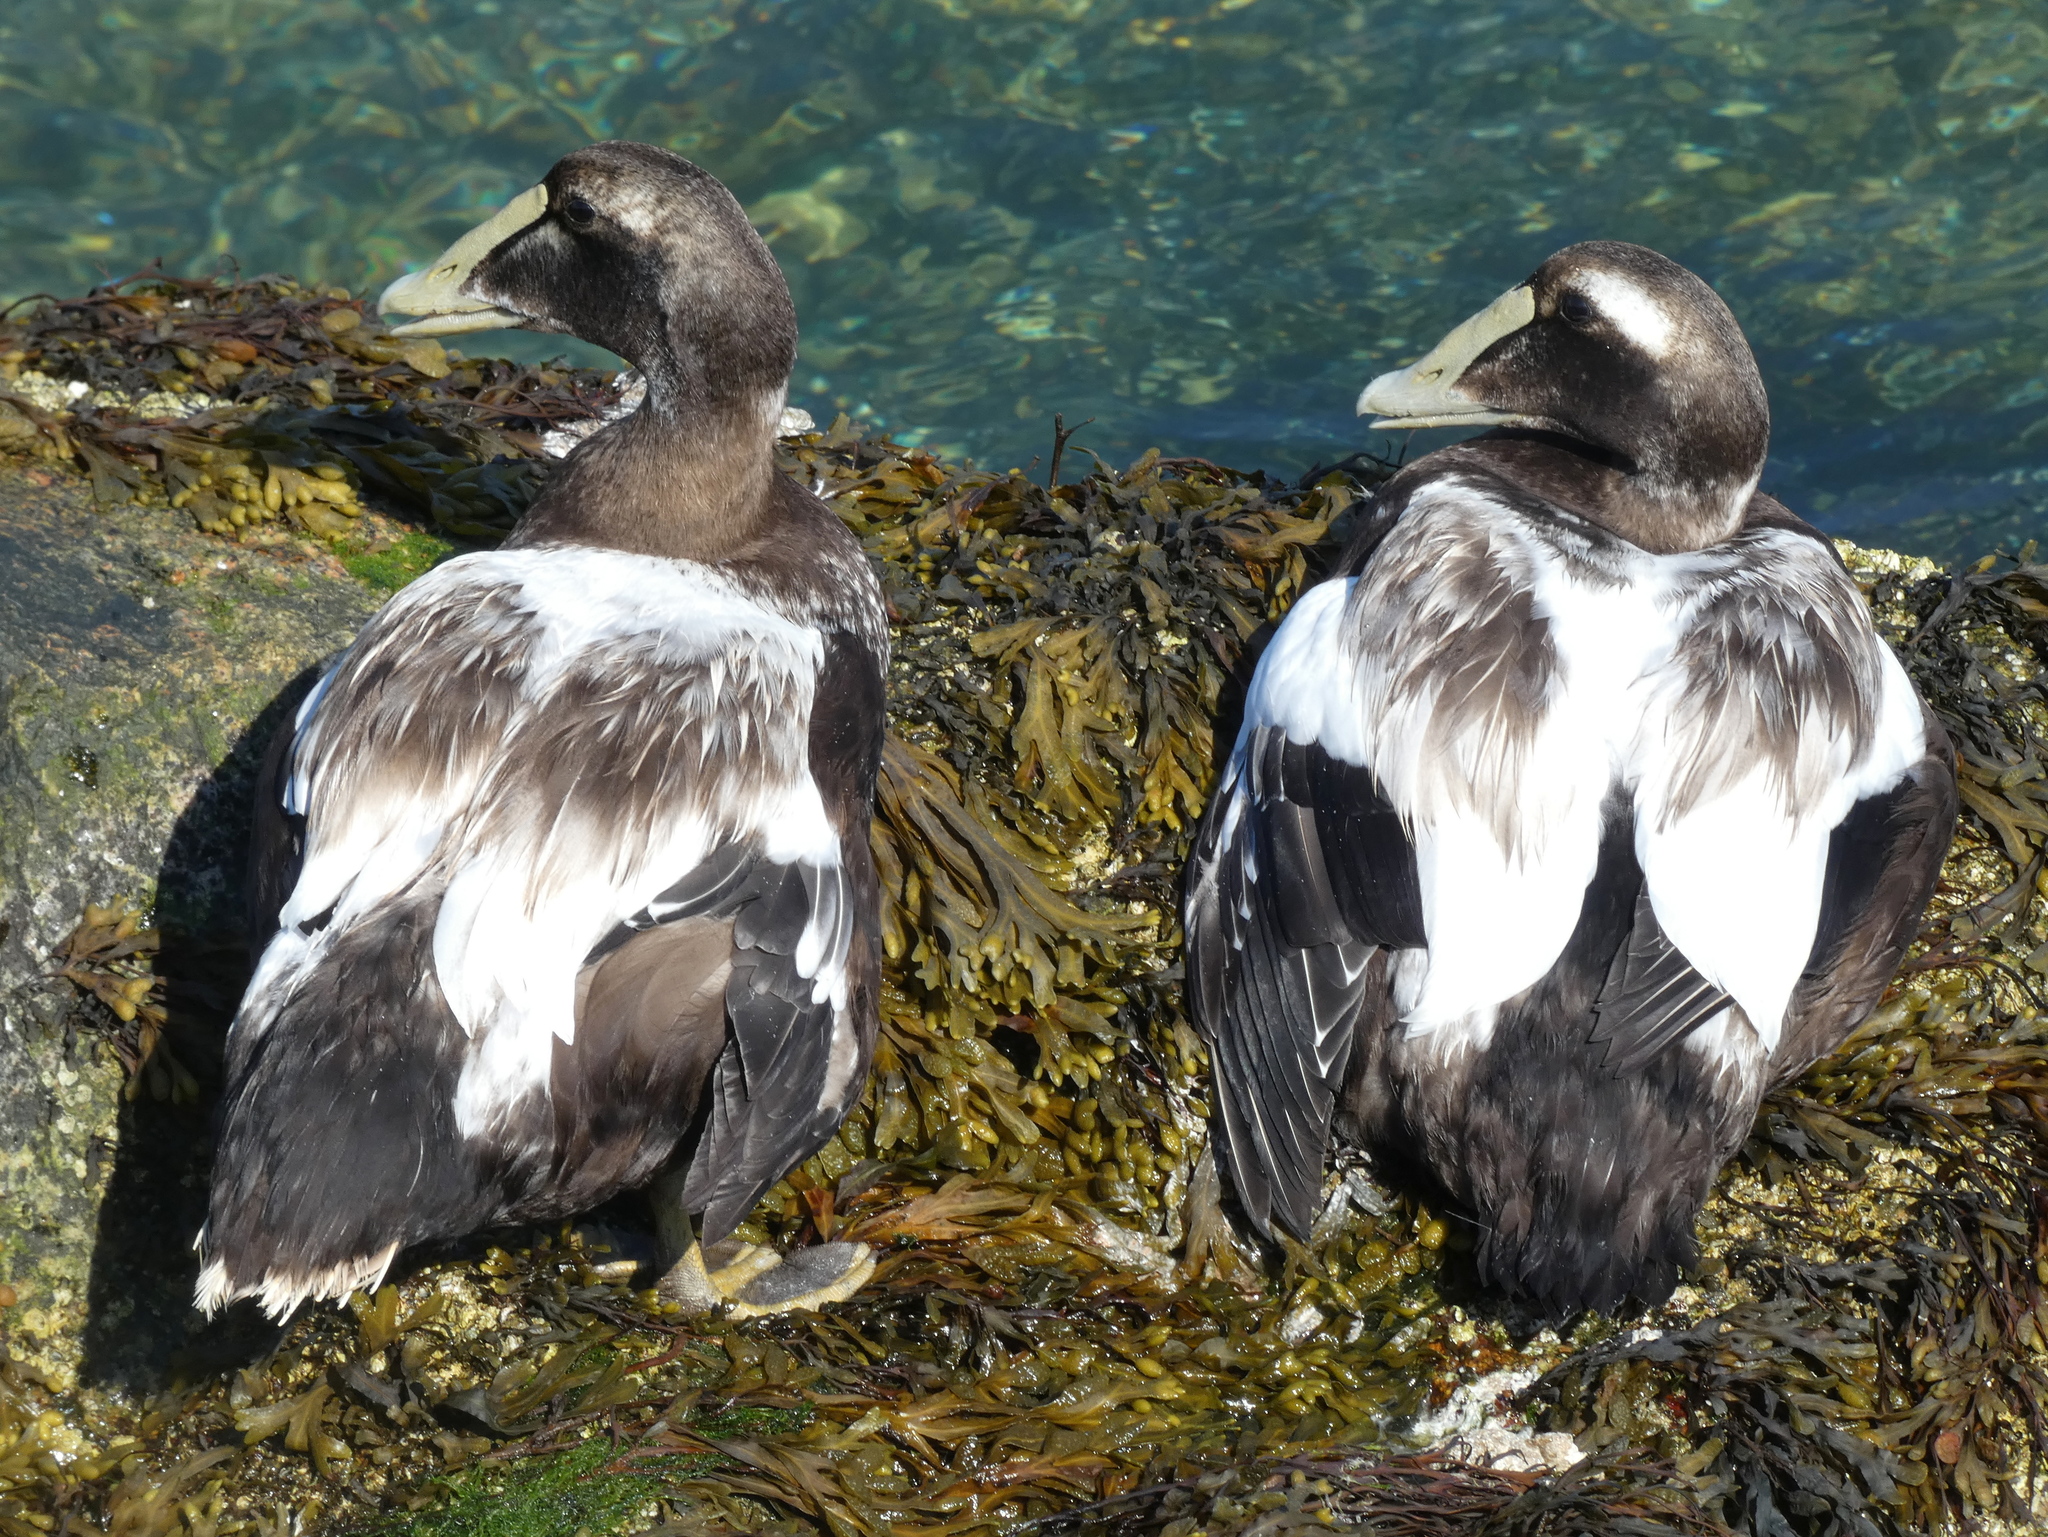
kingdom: Animalia
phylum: Chordata
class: Aves
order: Anseriformes
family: Anatidae
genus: Somateria
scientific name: Somateria mollissima
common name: Common eider
